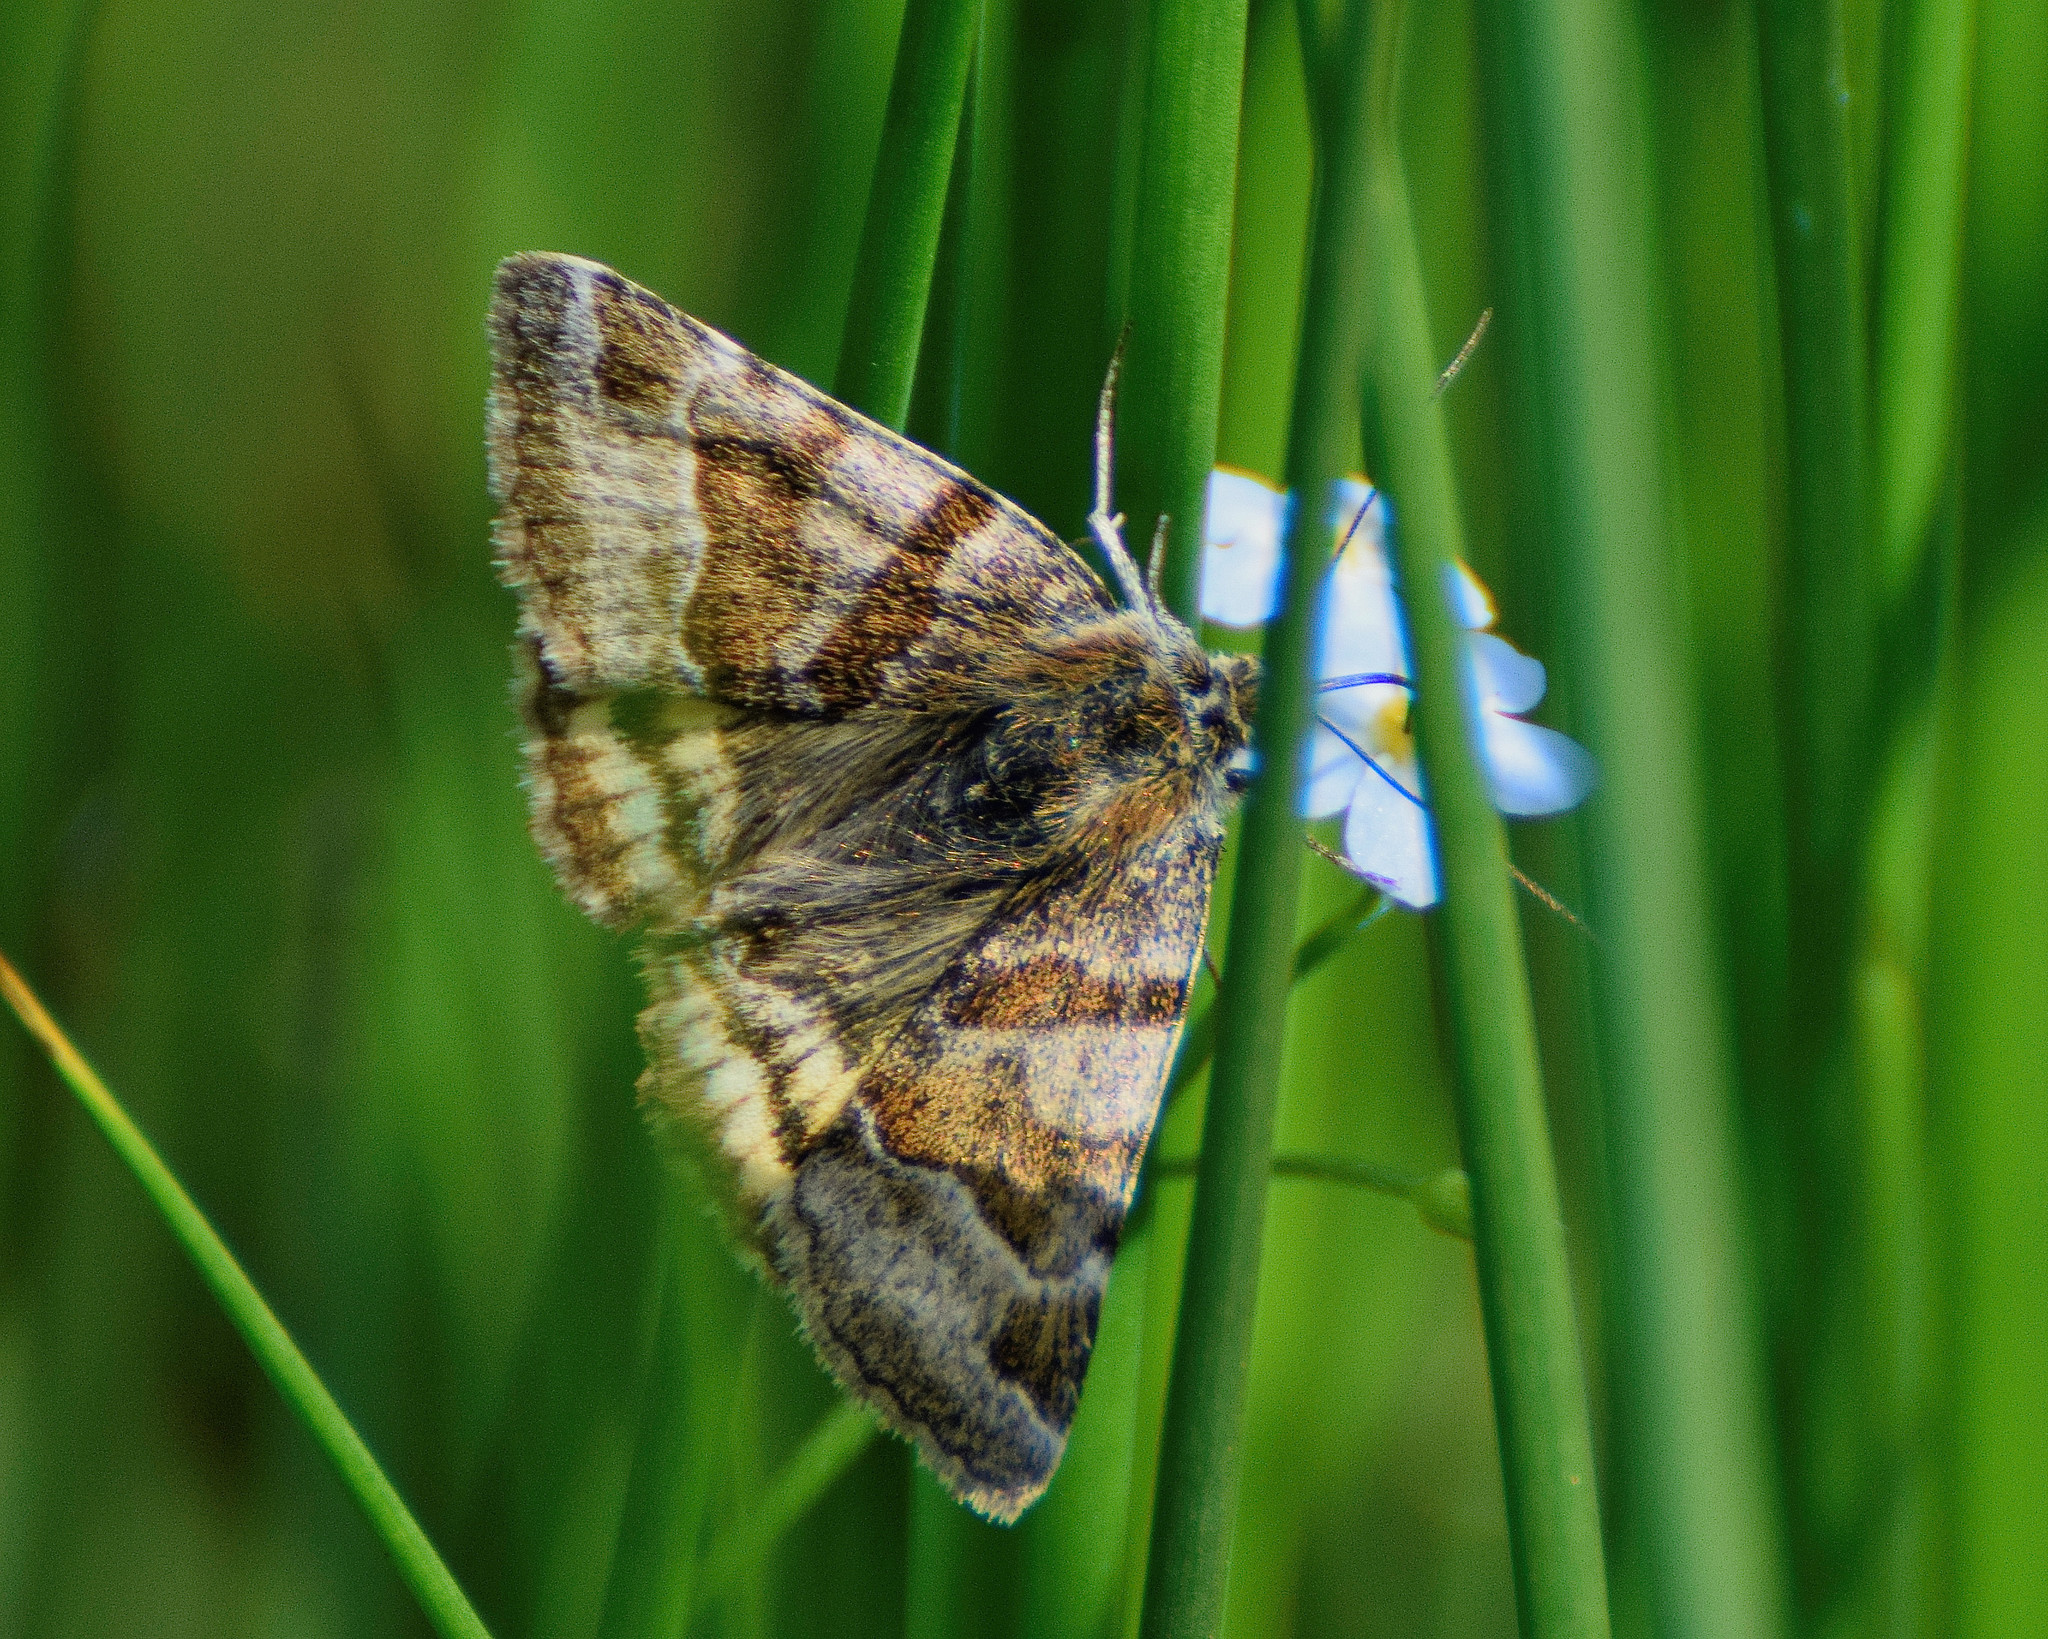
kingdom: Animalia
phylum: Arthropoda
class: Insecta
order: Lepidoptera
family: Erebidae
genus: Euclidia
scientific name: Euclidia glyphica
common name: Burnet companion
